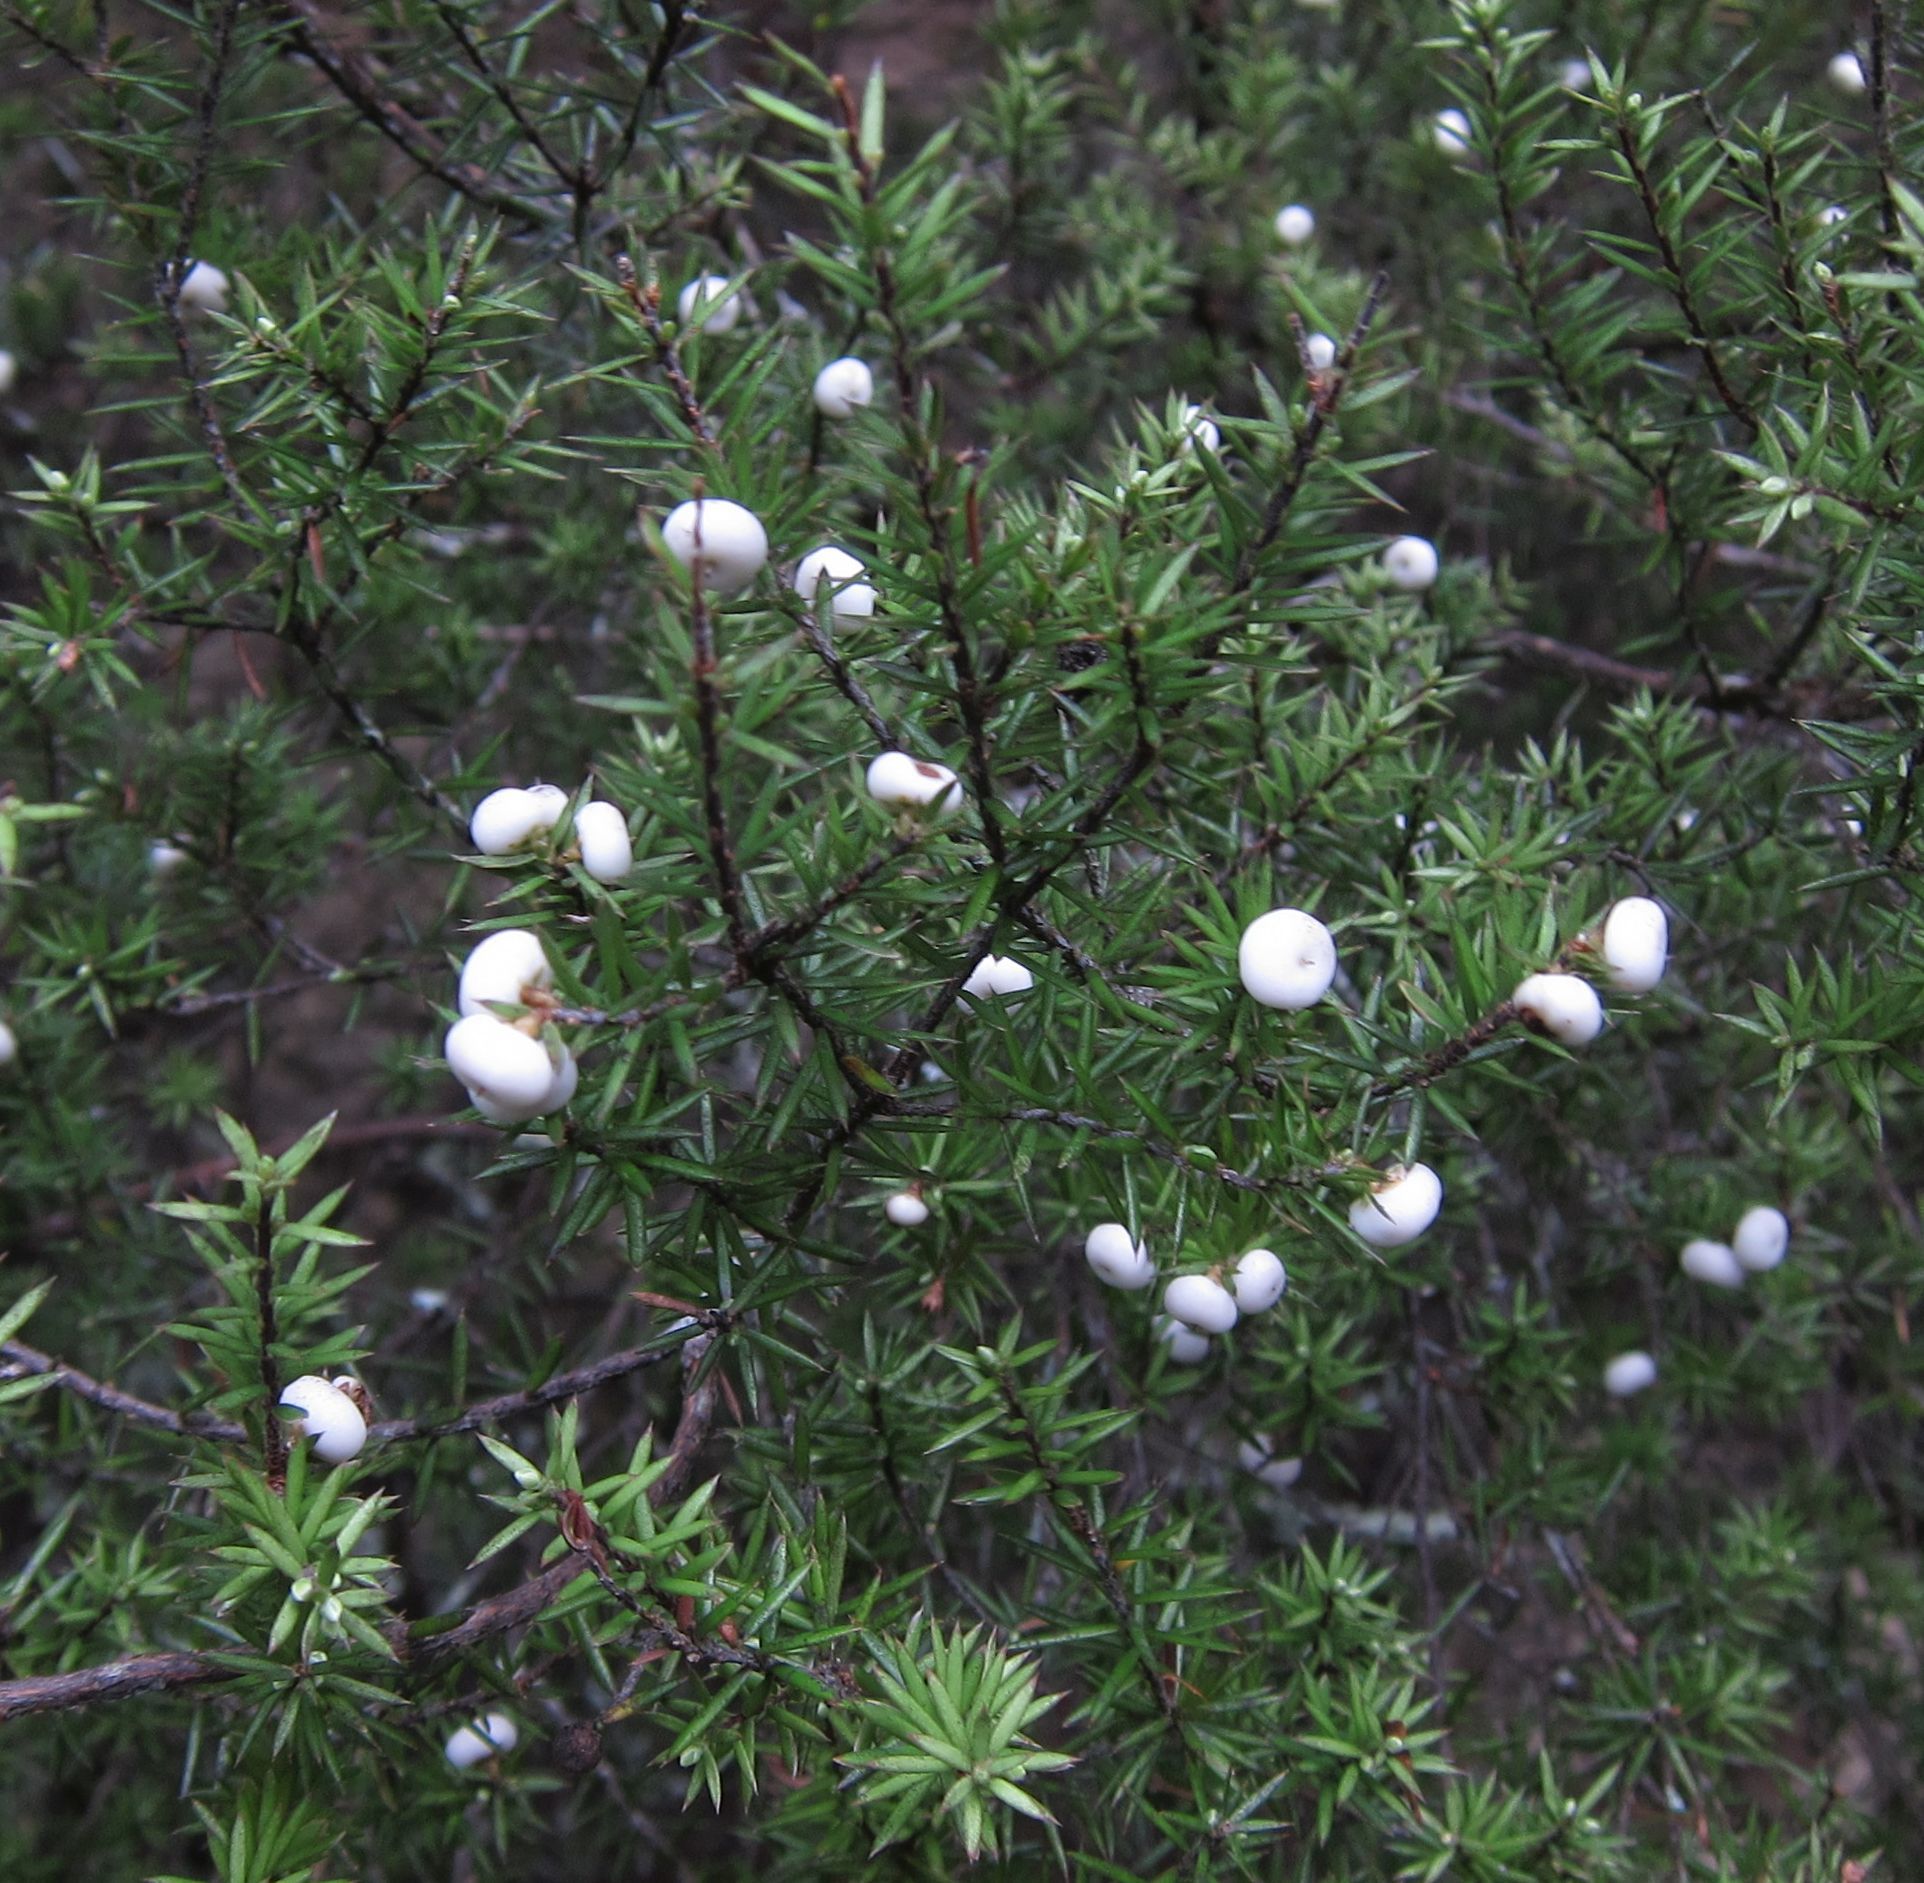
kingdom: Plantae
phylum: Tracheophyta
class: Magnoliopsida
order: Ericales
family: Ericaceae
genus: Leptecophylla
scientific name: Leptecophylla juniperina
